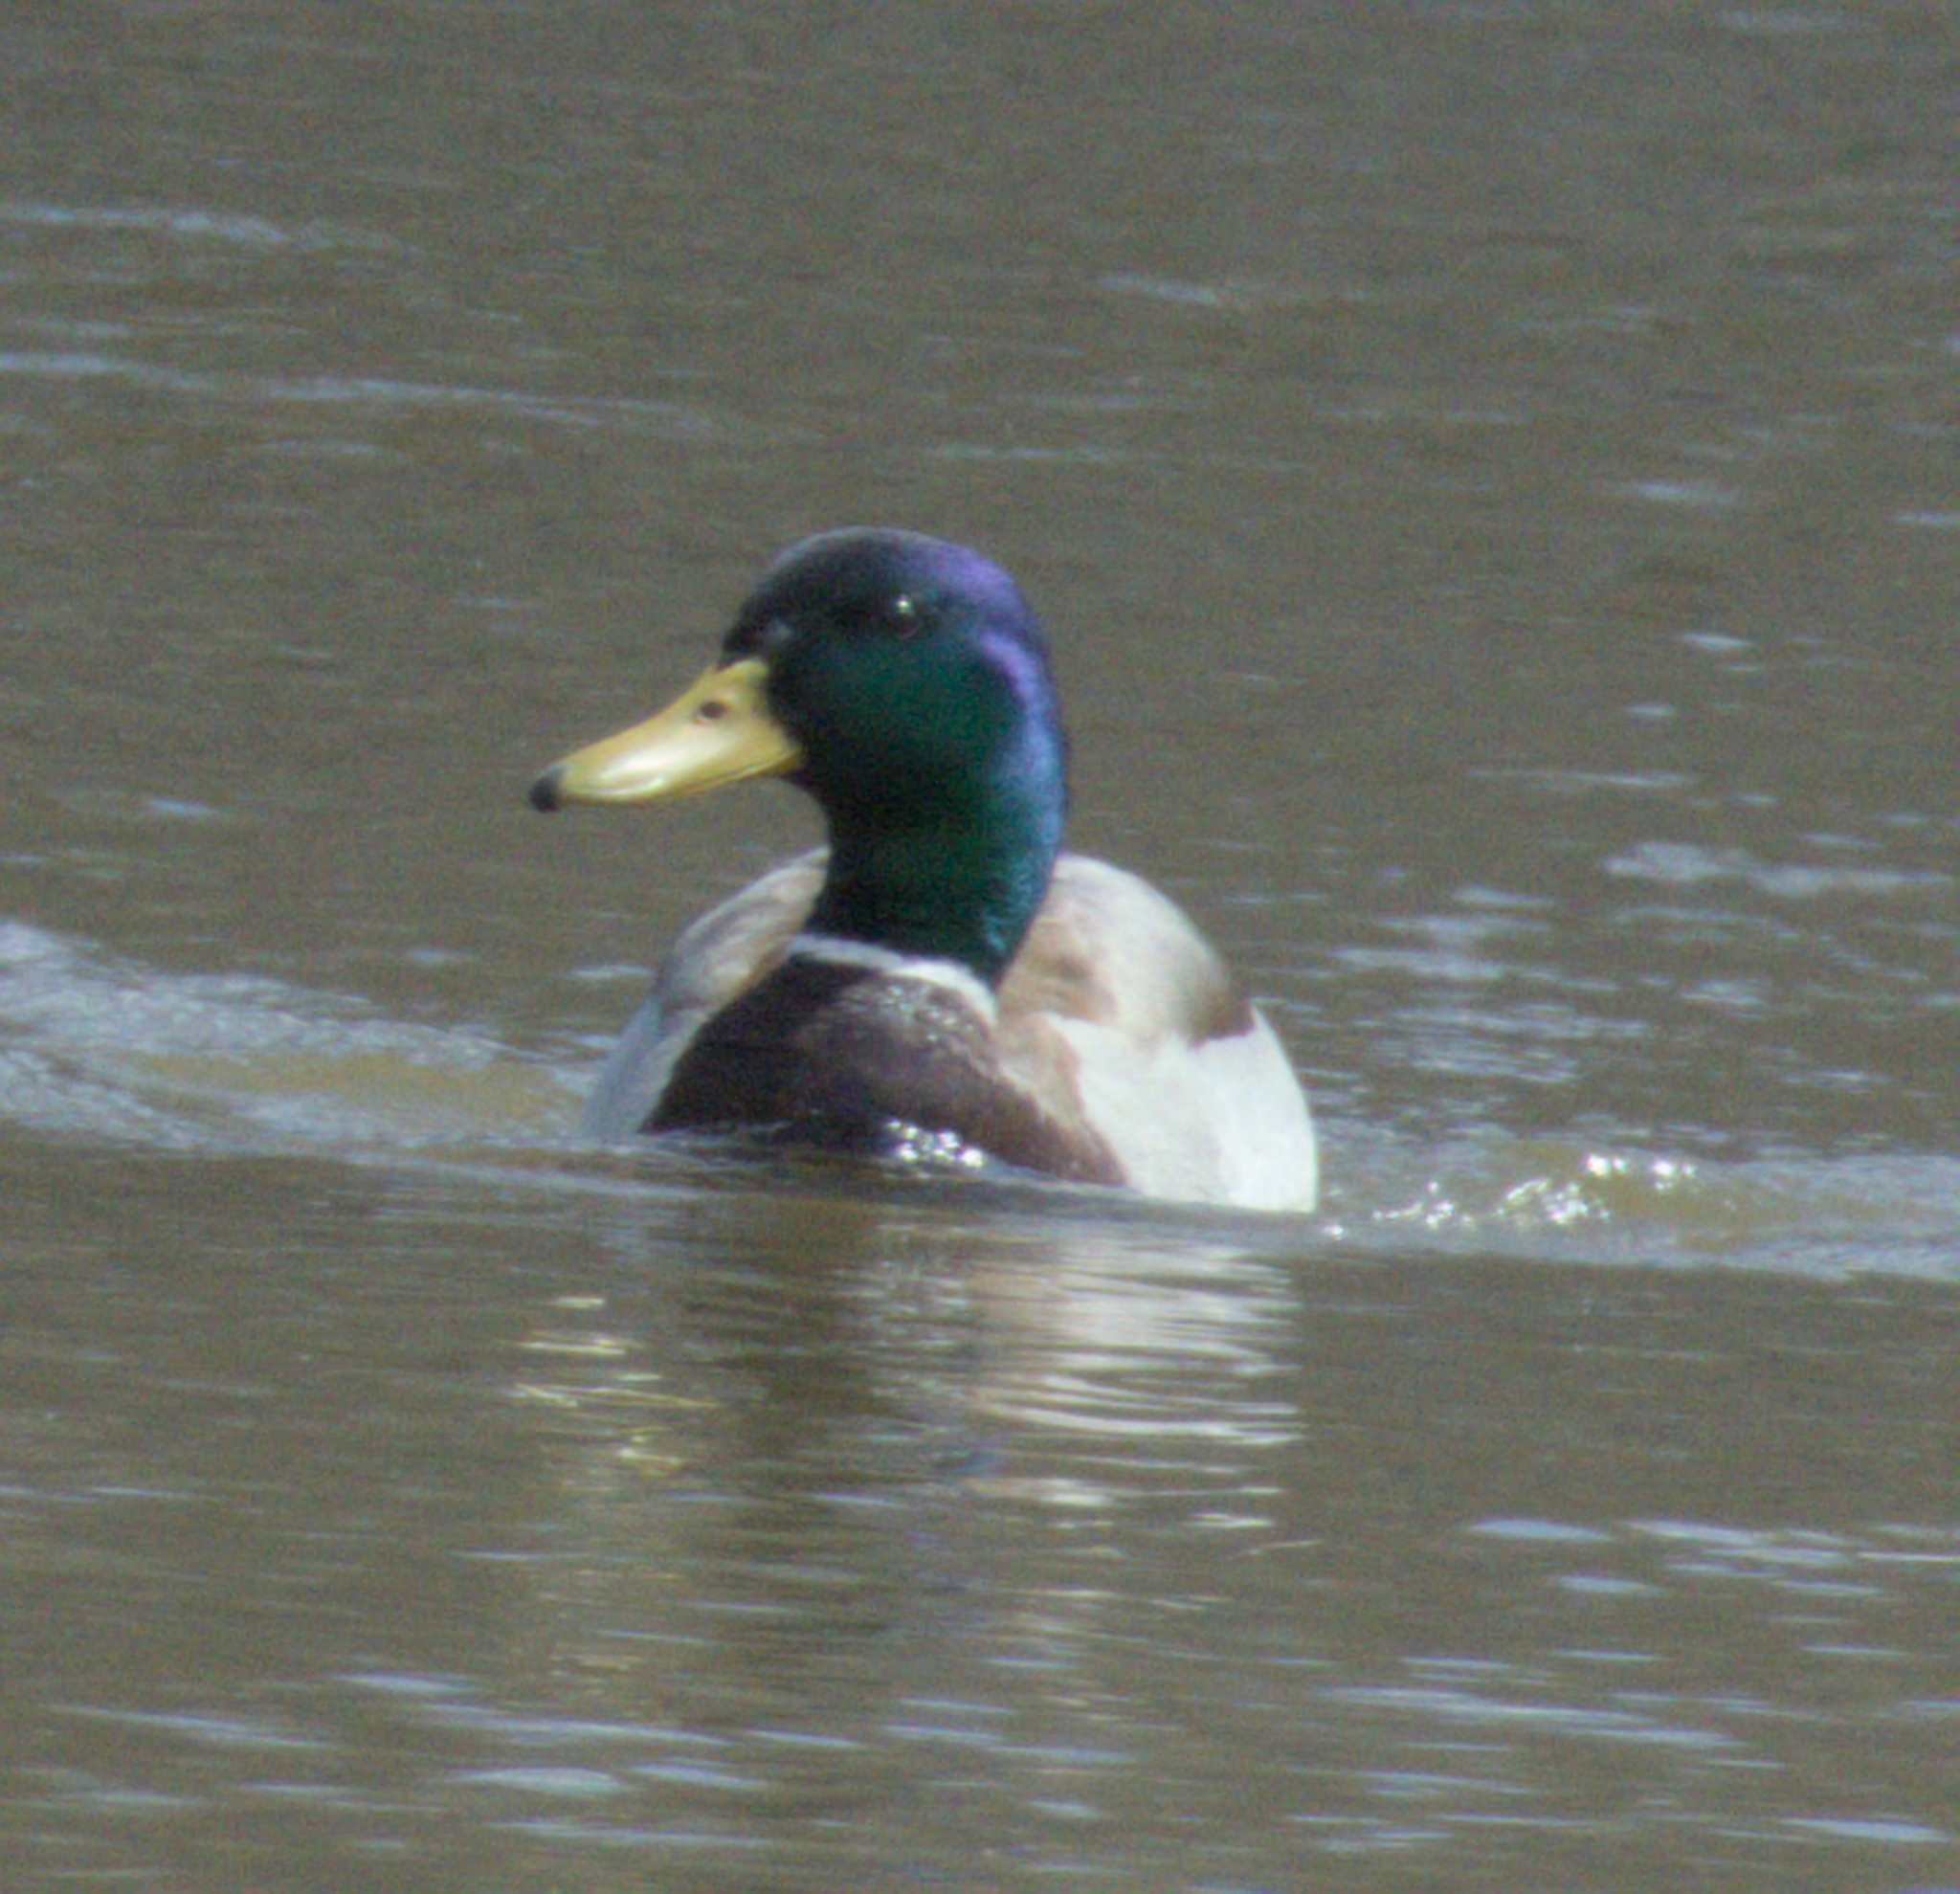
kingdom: Animalia
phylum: Chordata
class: Aves
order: Anseriformes
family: Anatidae
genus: Anas
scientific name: Anas platyrhynchos
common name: Mallard
